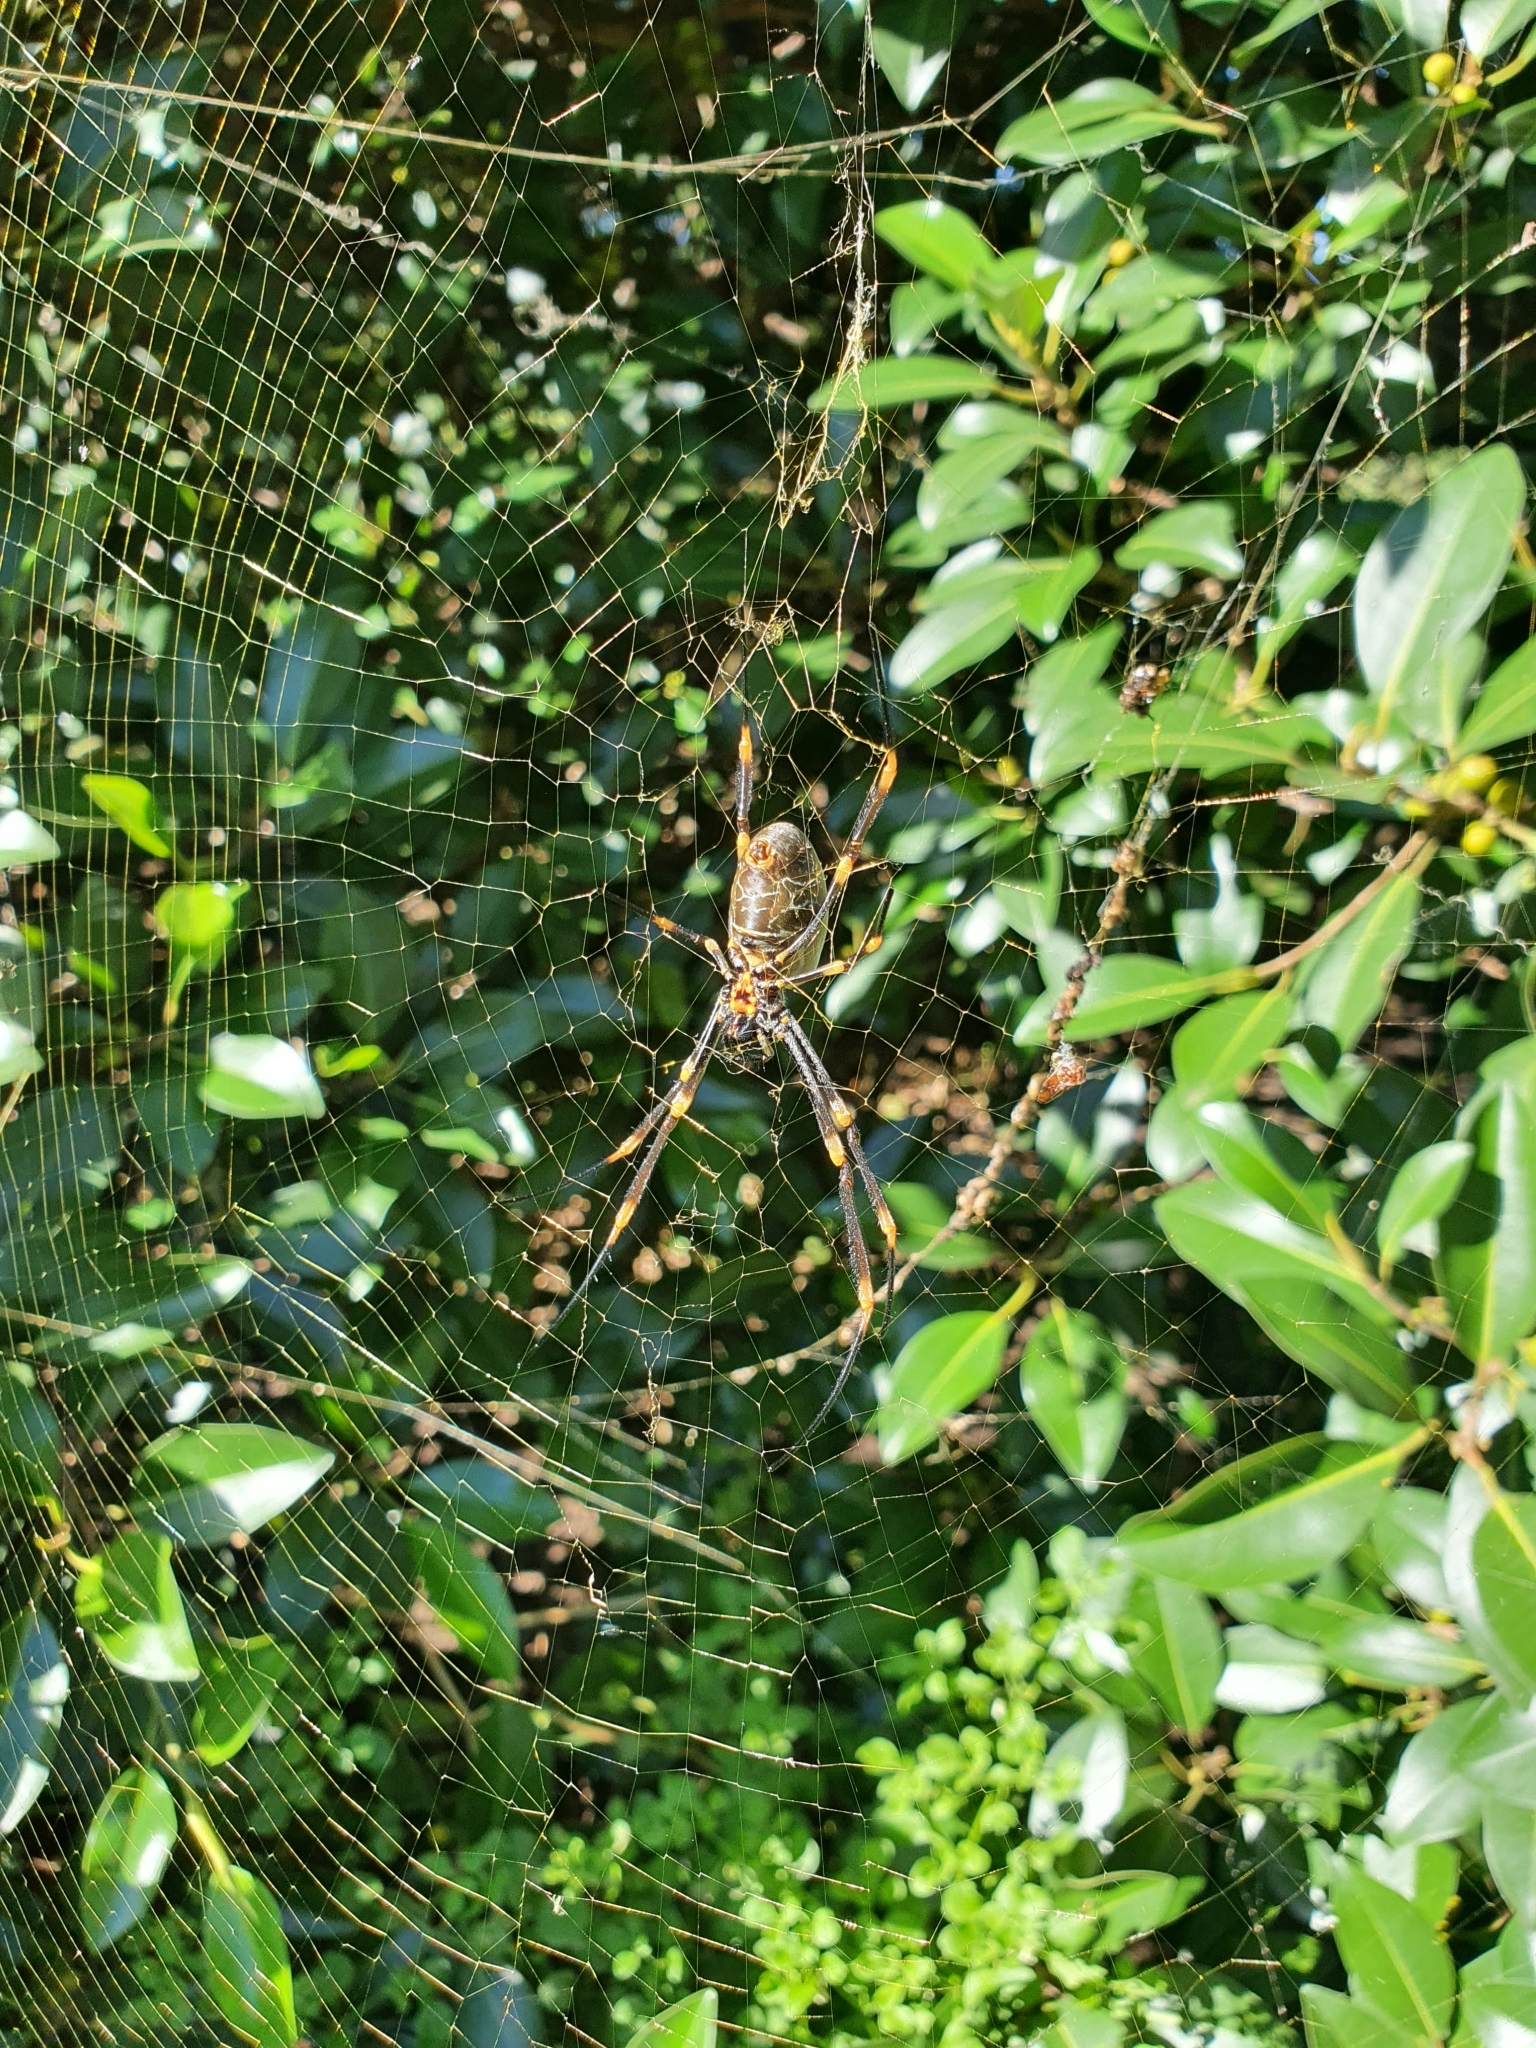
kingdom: Animalia
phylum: Arthropoda
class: Arachnida
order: Araneae
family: Araneidae
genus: Trichonephila
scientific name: Trichonephila plumipes
